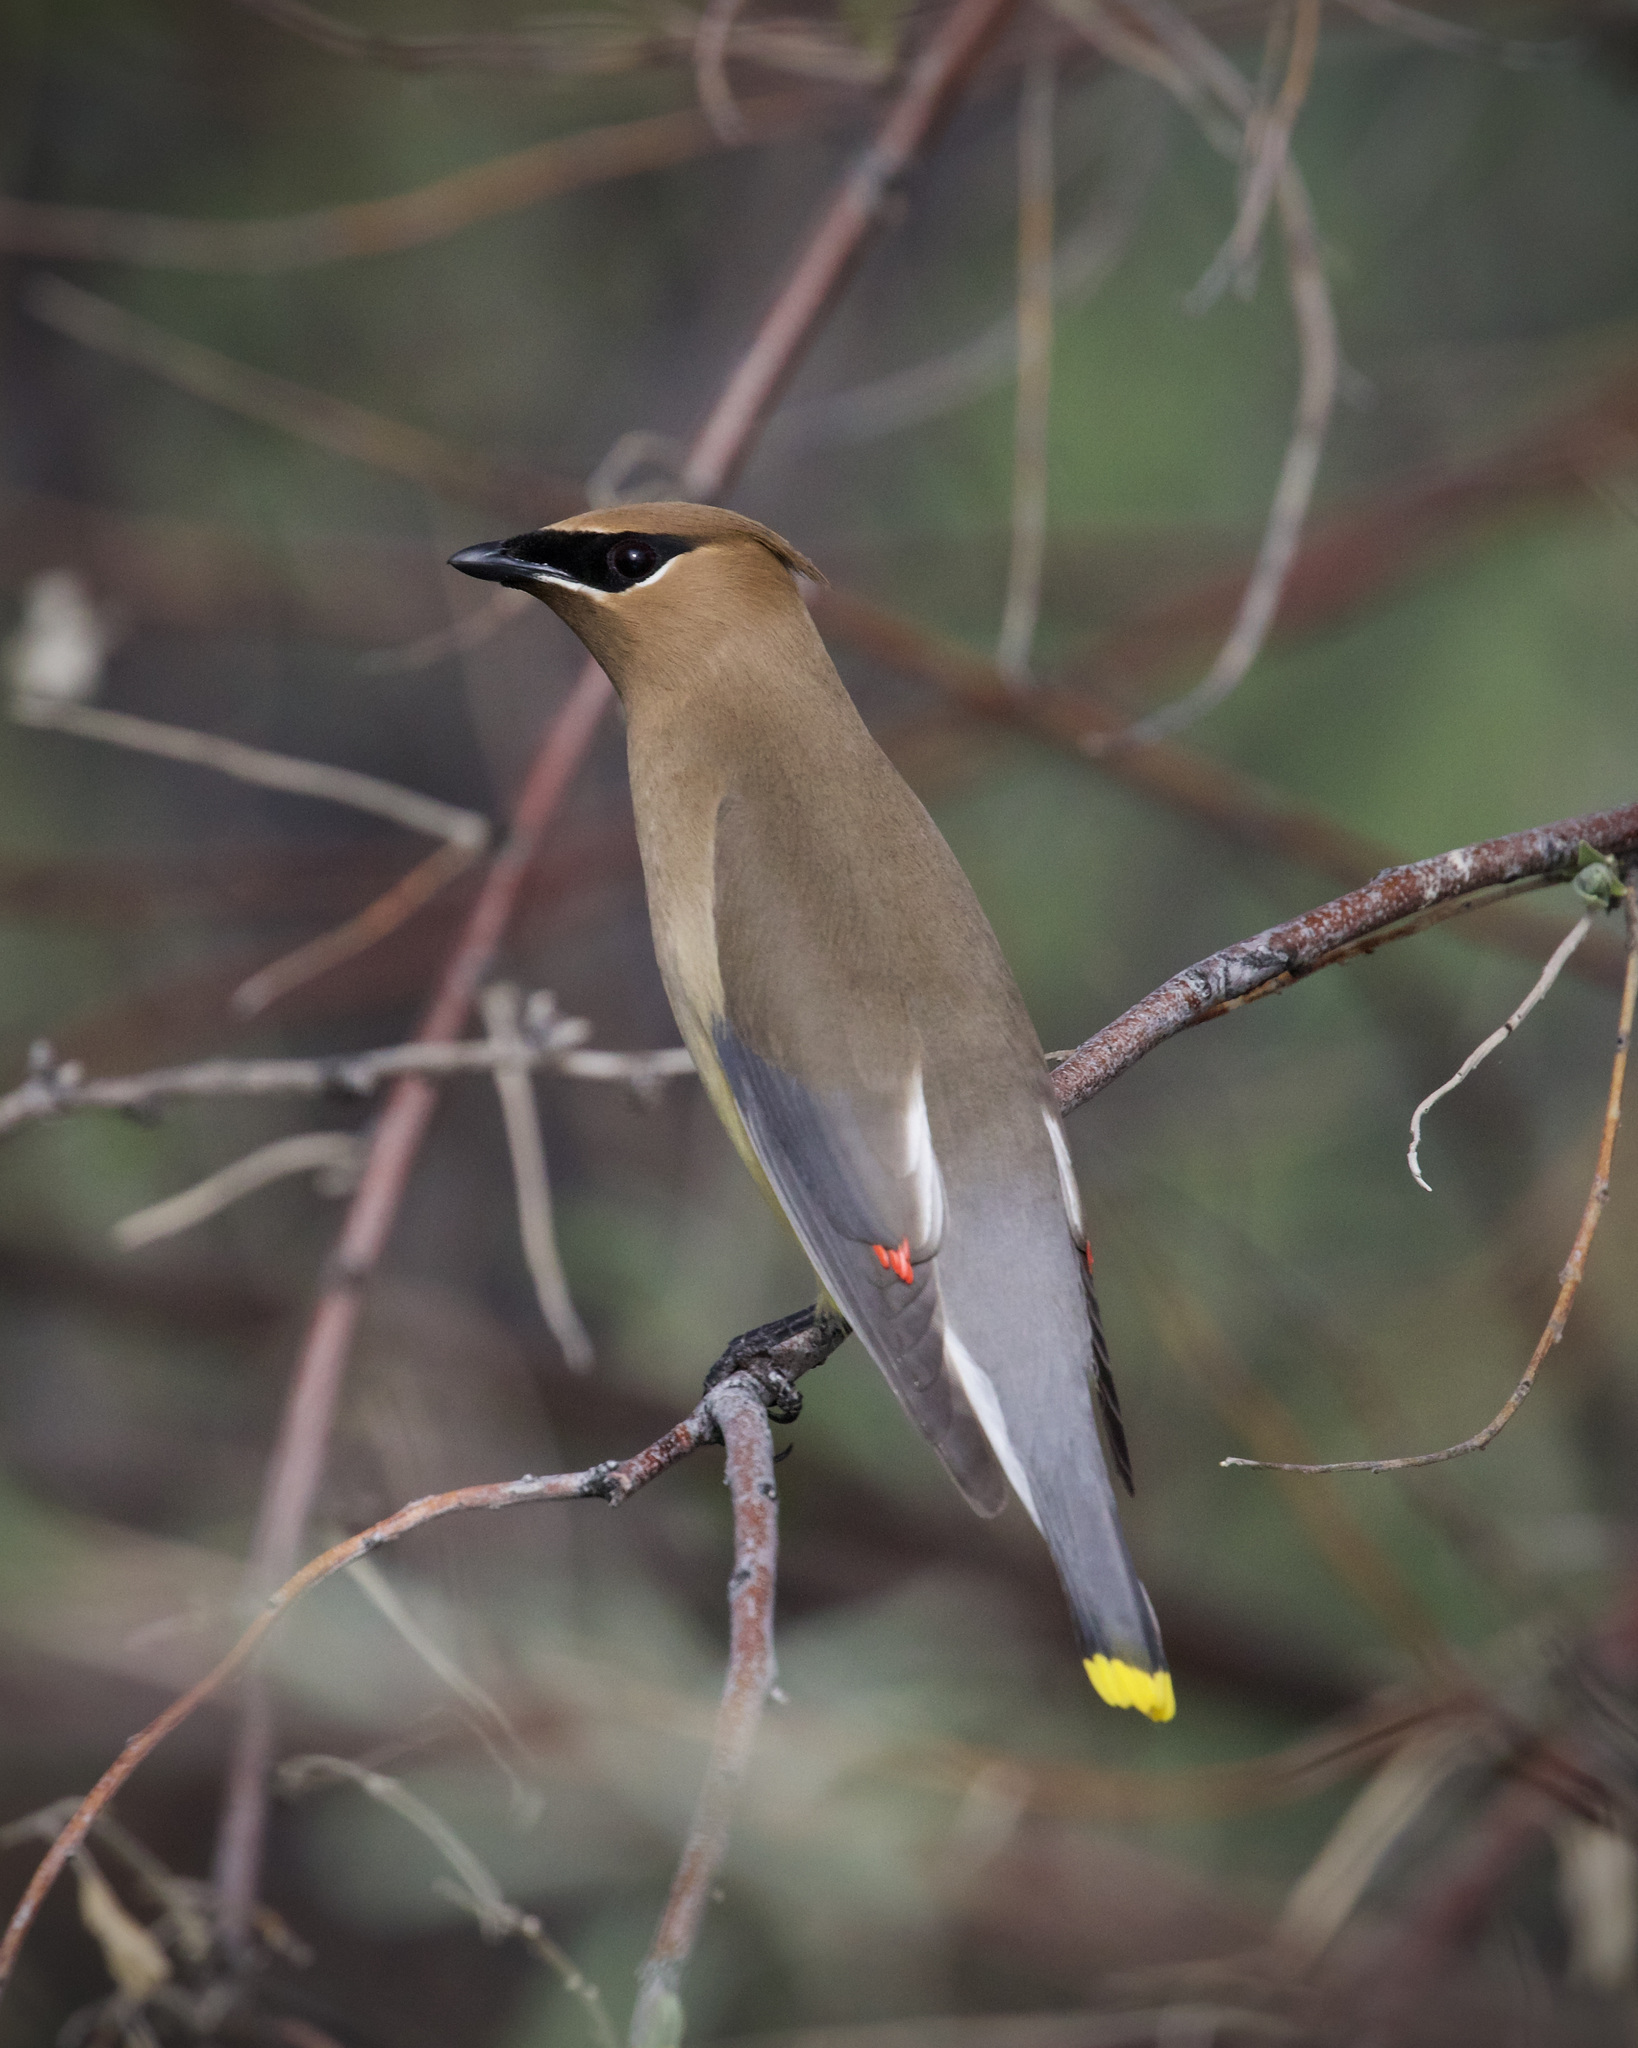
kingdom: Animalia
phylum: Chordata
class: Aves
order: Passeriformes
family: Bombycillidae
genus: Bombycilla
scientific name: Bombycilla cedrorum
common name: Cedar waxwing
